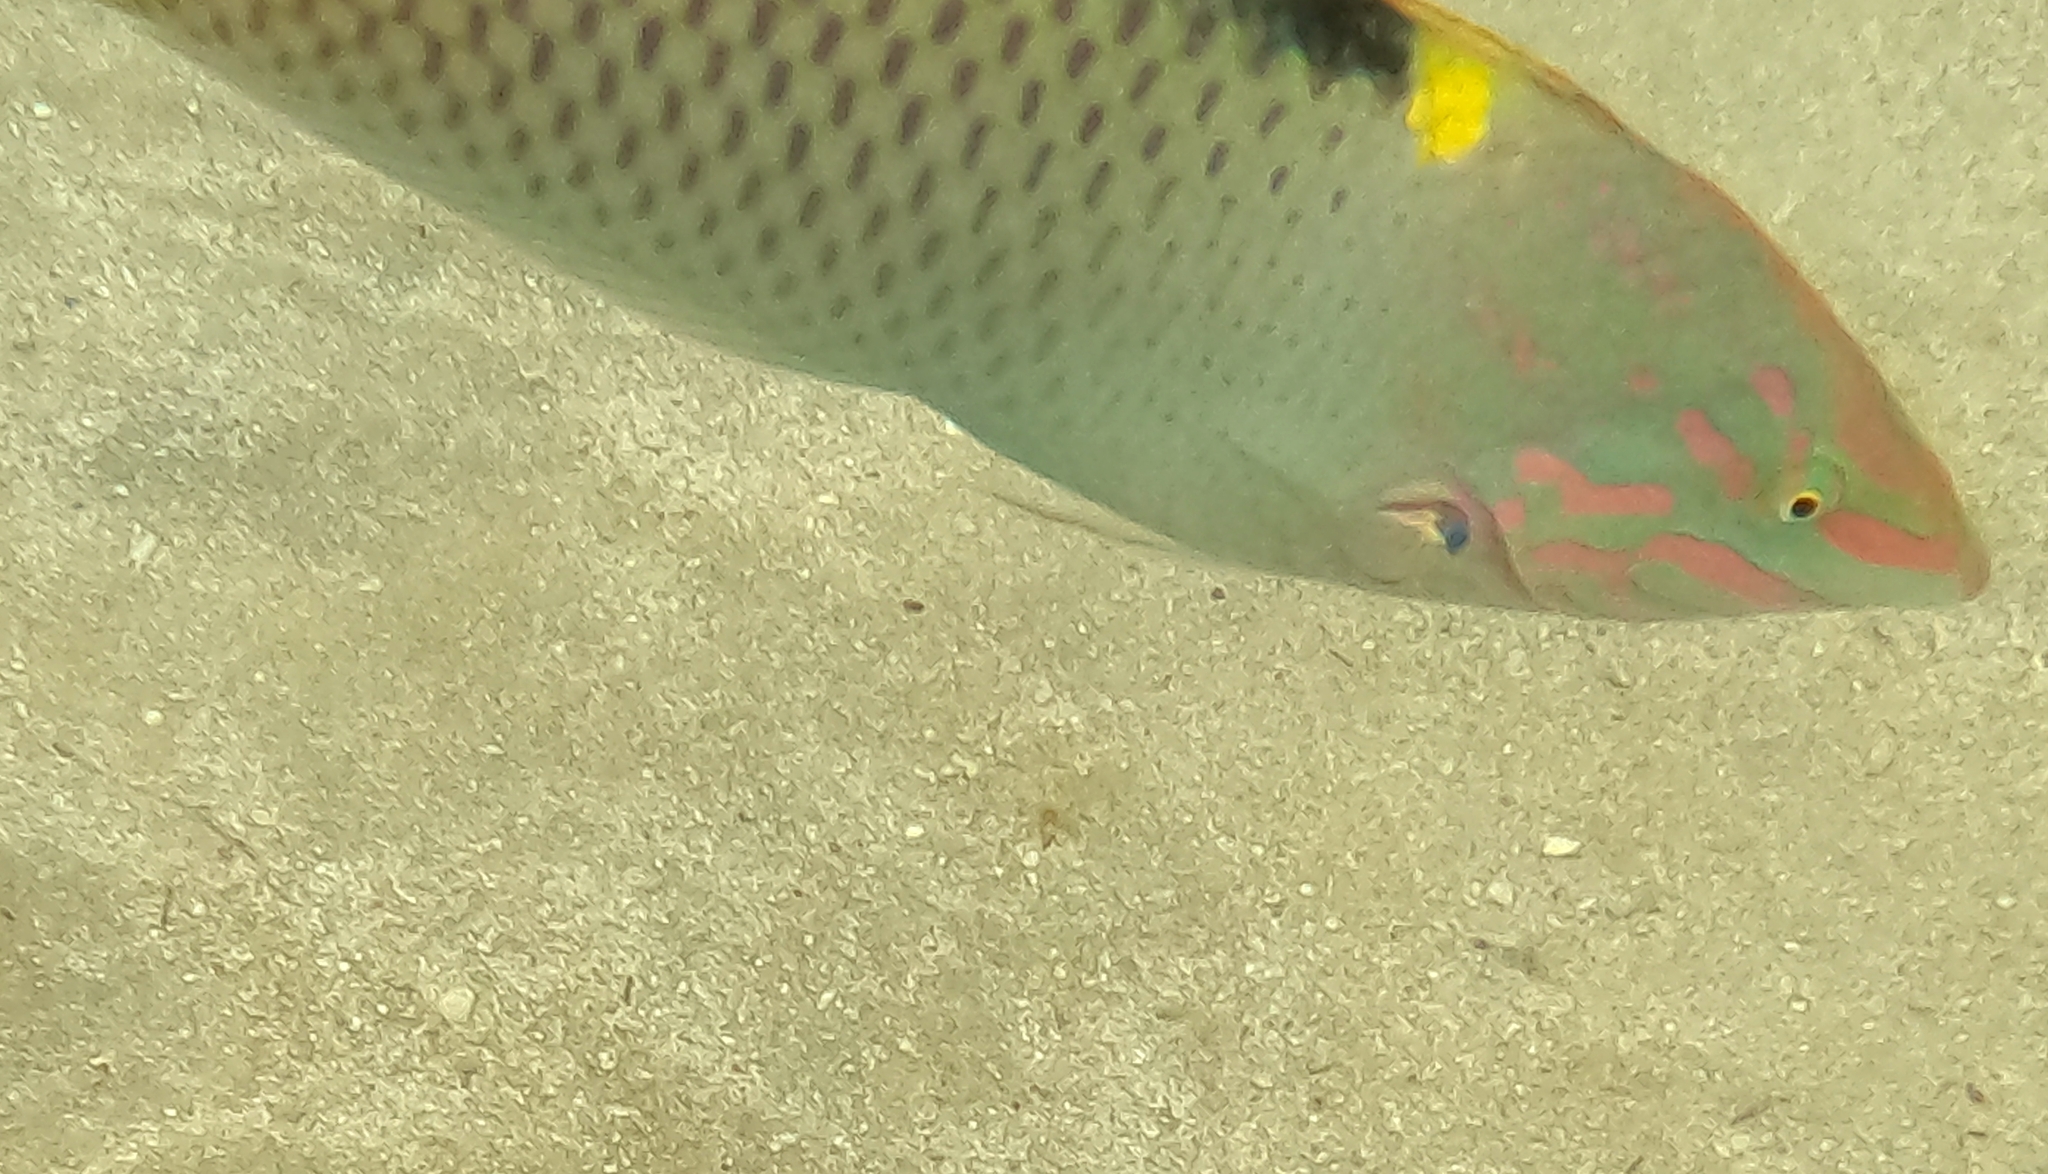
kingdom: Animalia
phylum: Chordata
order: Perciformes
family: Labridae
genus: Halichoeres
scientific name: Halichoeres hortulanus
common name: Checkerboard wrasse
